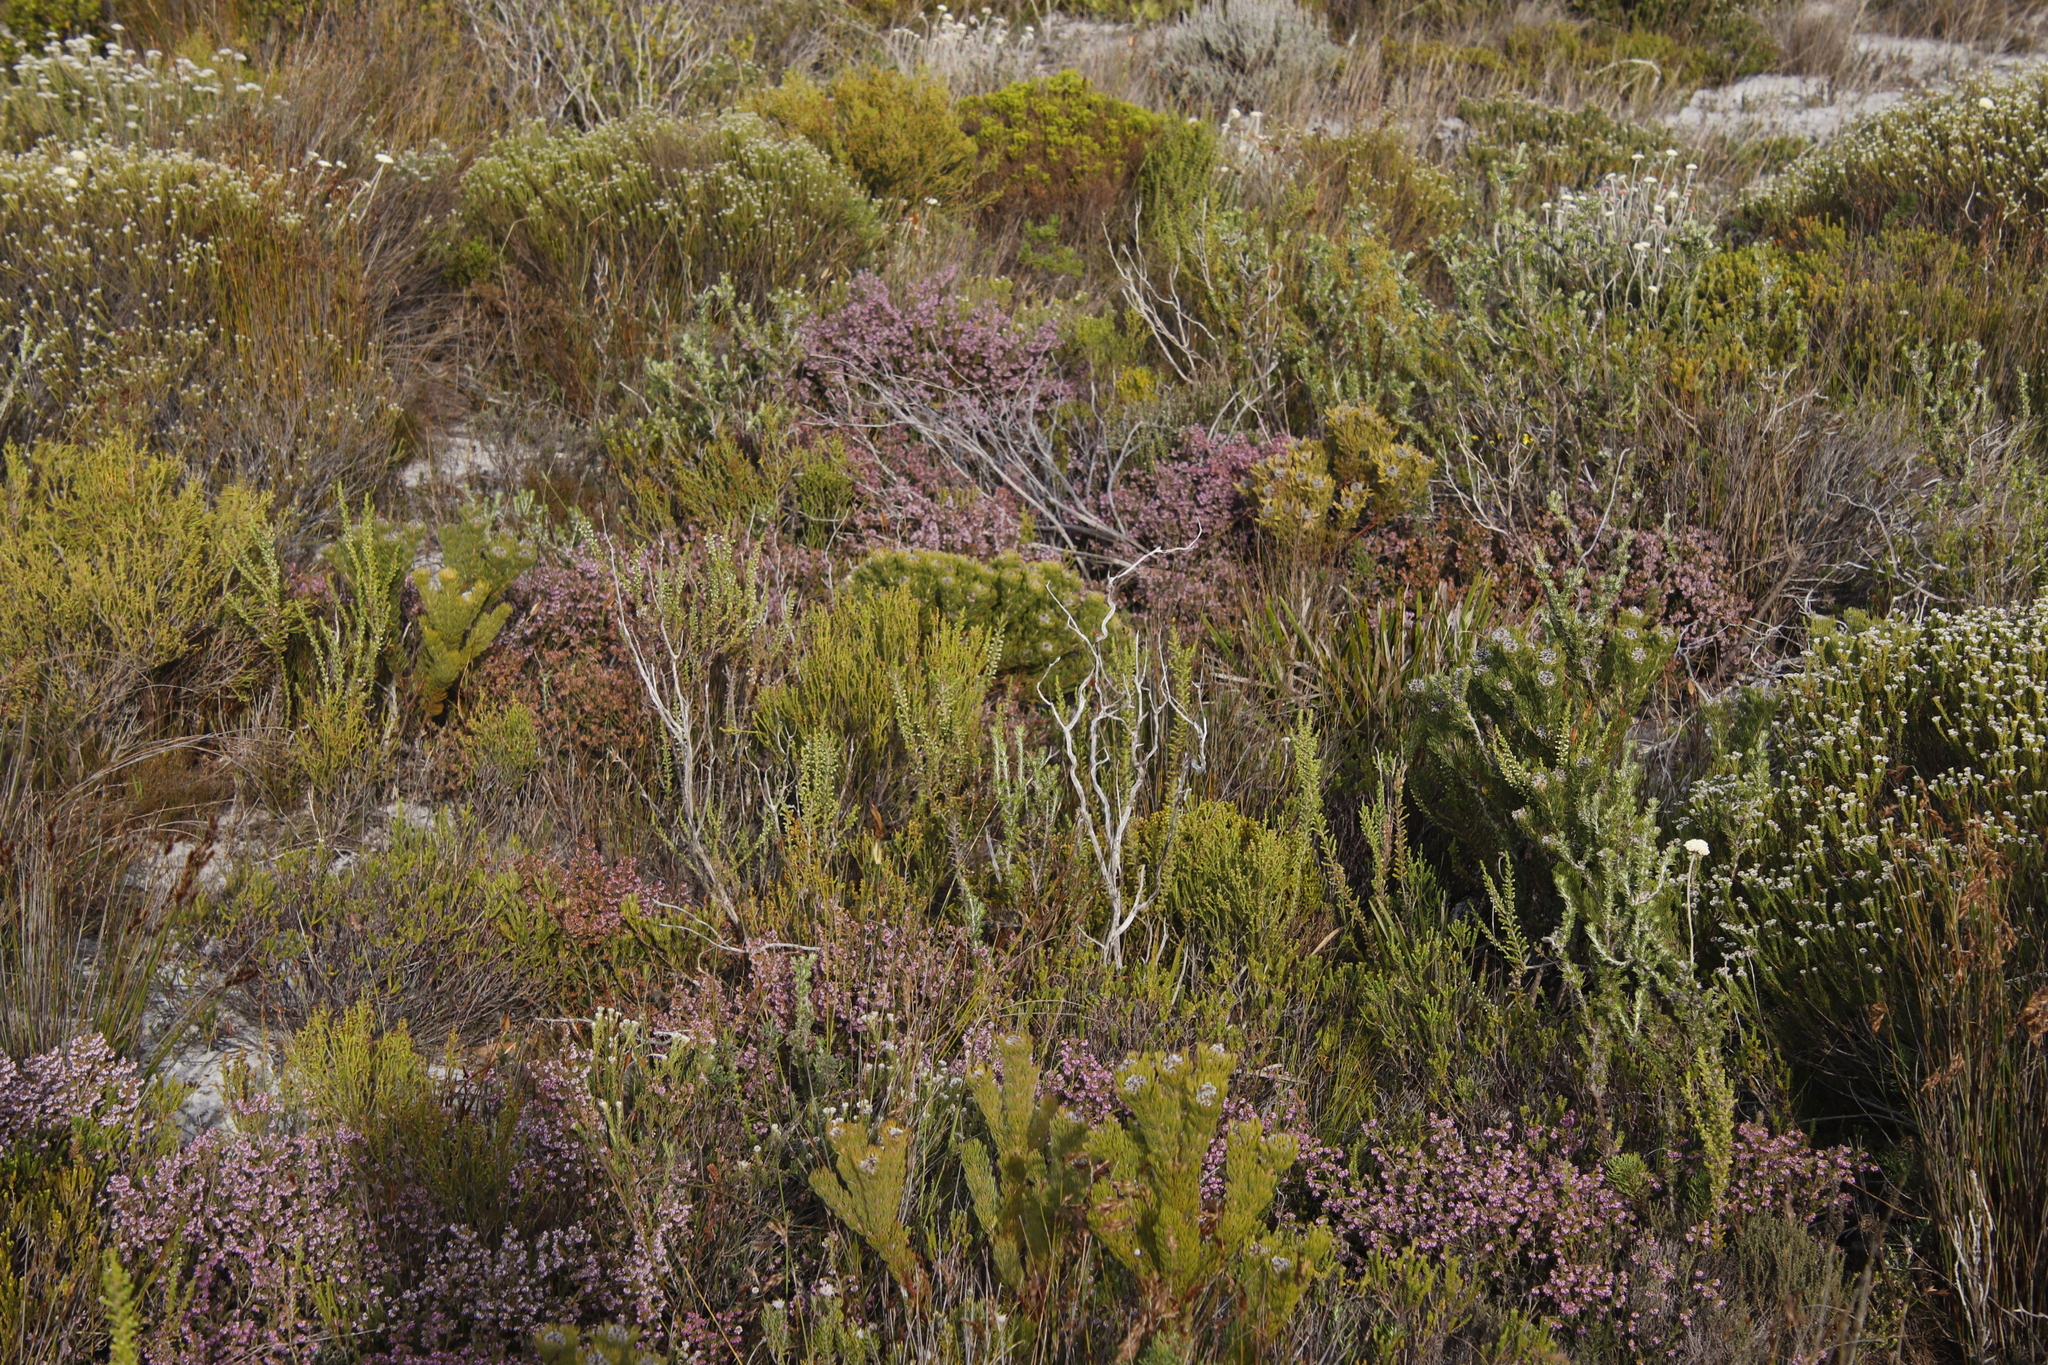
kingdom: Plantae
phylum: Tracheophyta
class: Magnoliopsida
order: Proteales
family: Proteaceae
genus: Serruria
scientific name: Serruria villosa
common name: Golden spiderhead
